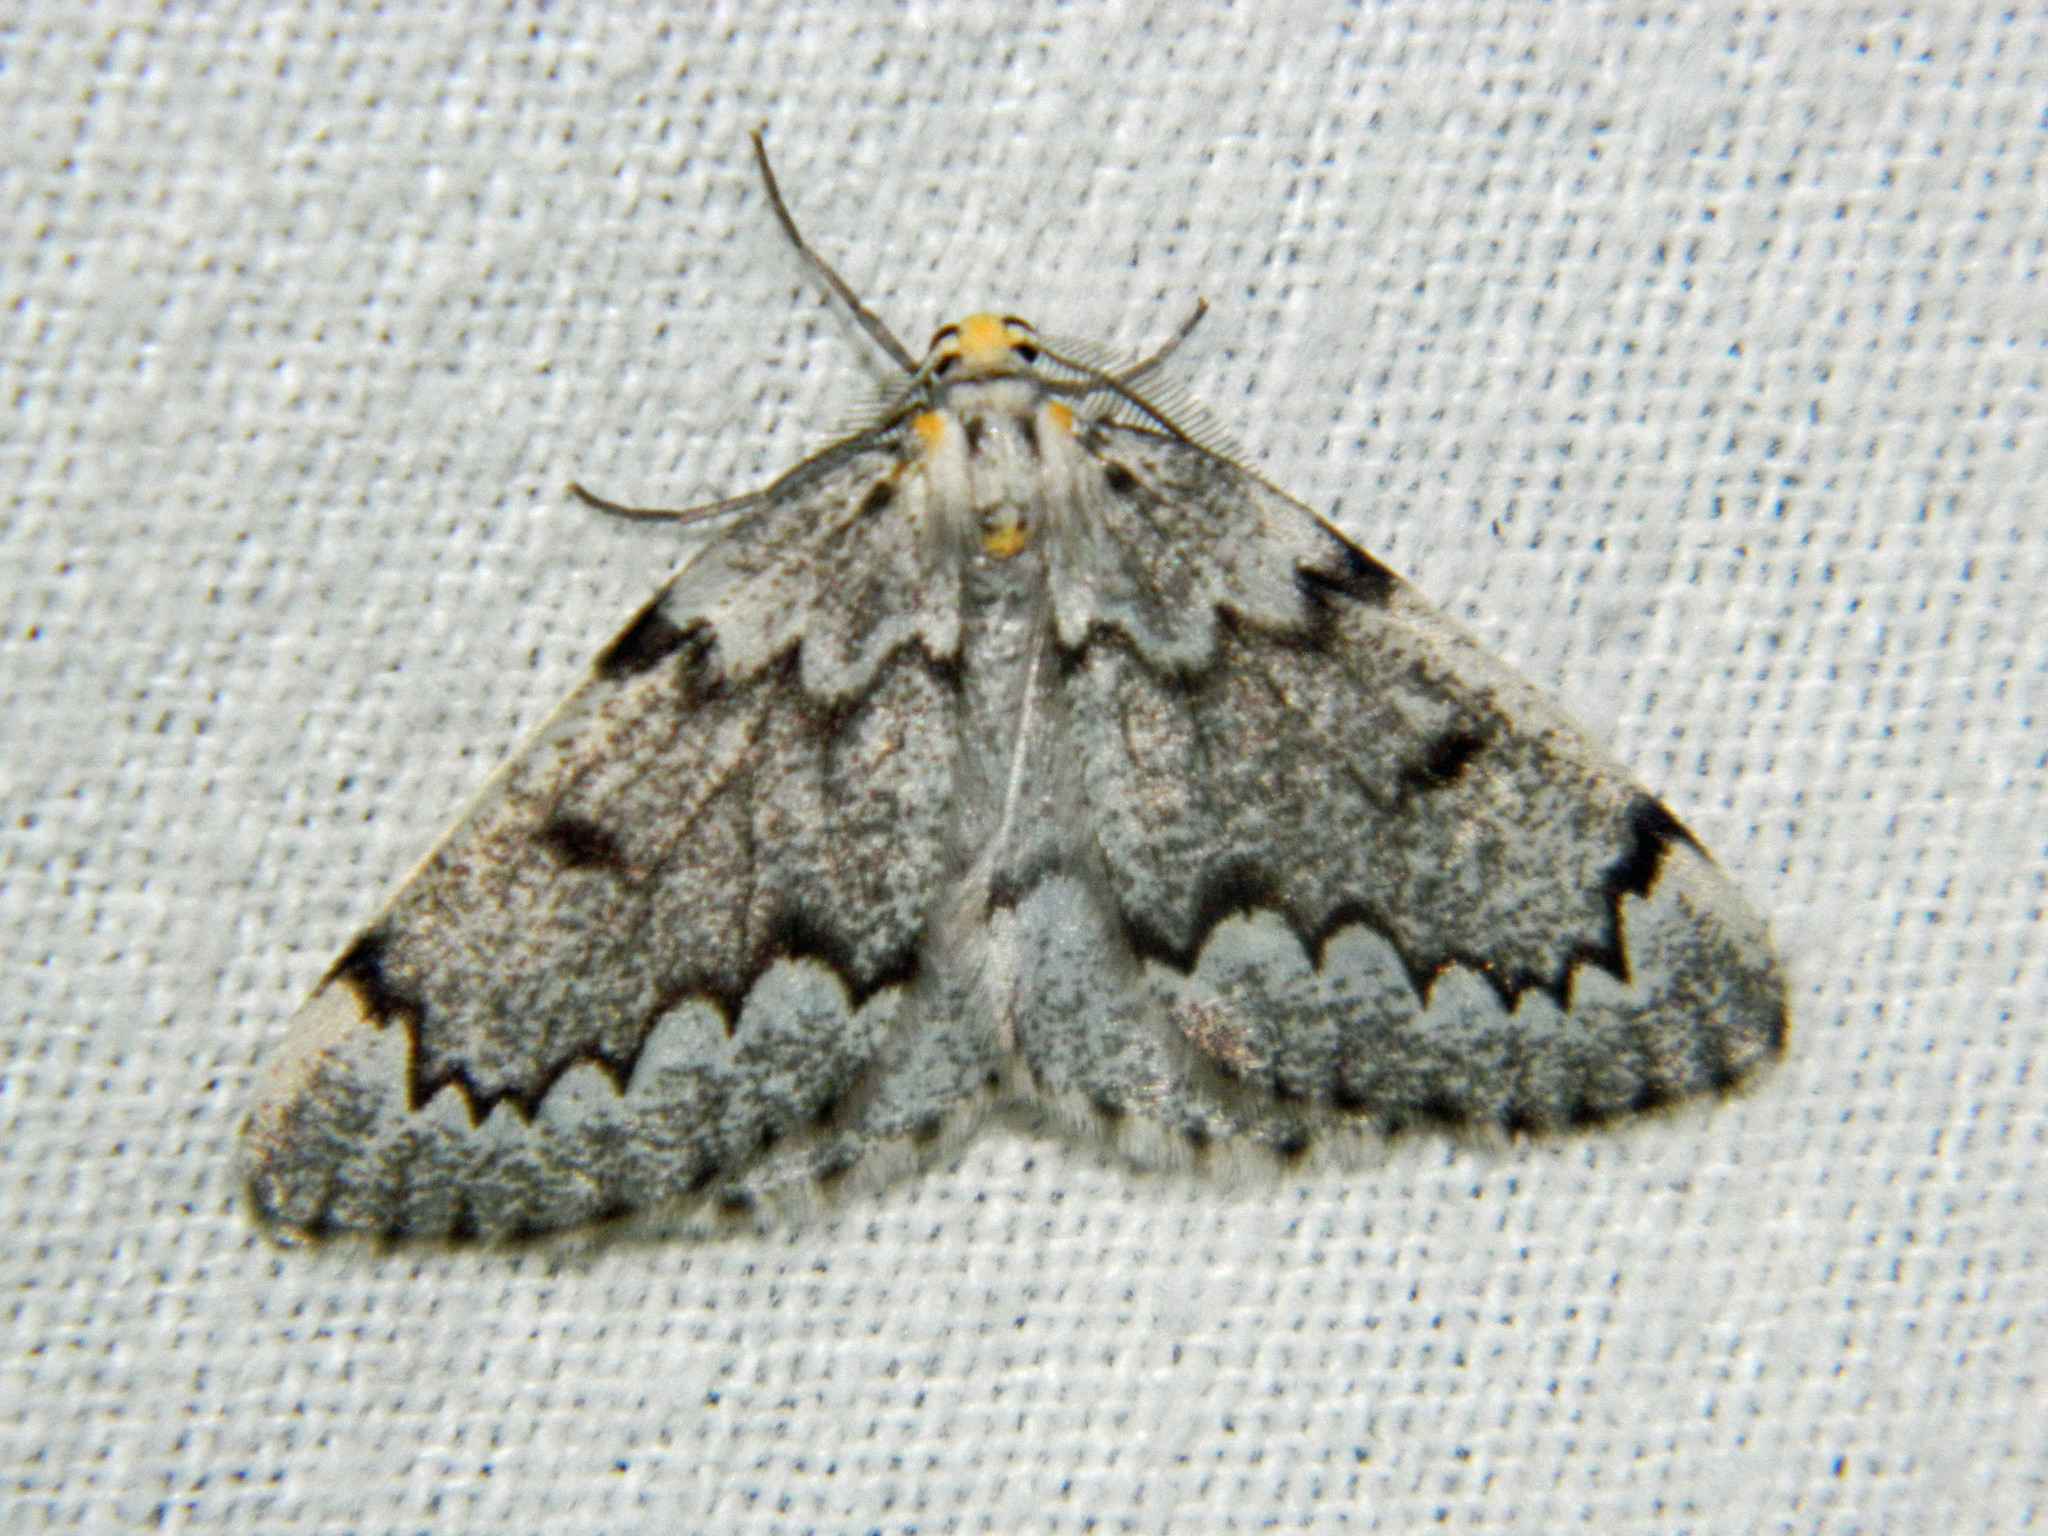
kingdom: Animalia
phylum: Arthropoda
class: Insecta
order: Lepidoptera
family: Geometridae
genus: Nepytia
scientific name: Nepytia canosaria
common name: False hemlock looper
